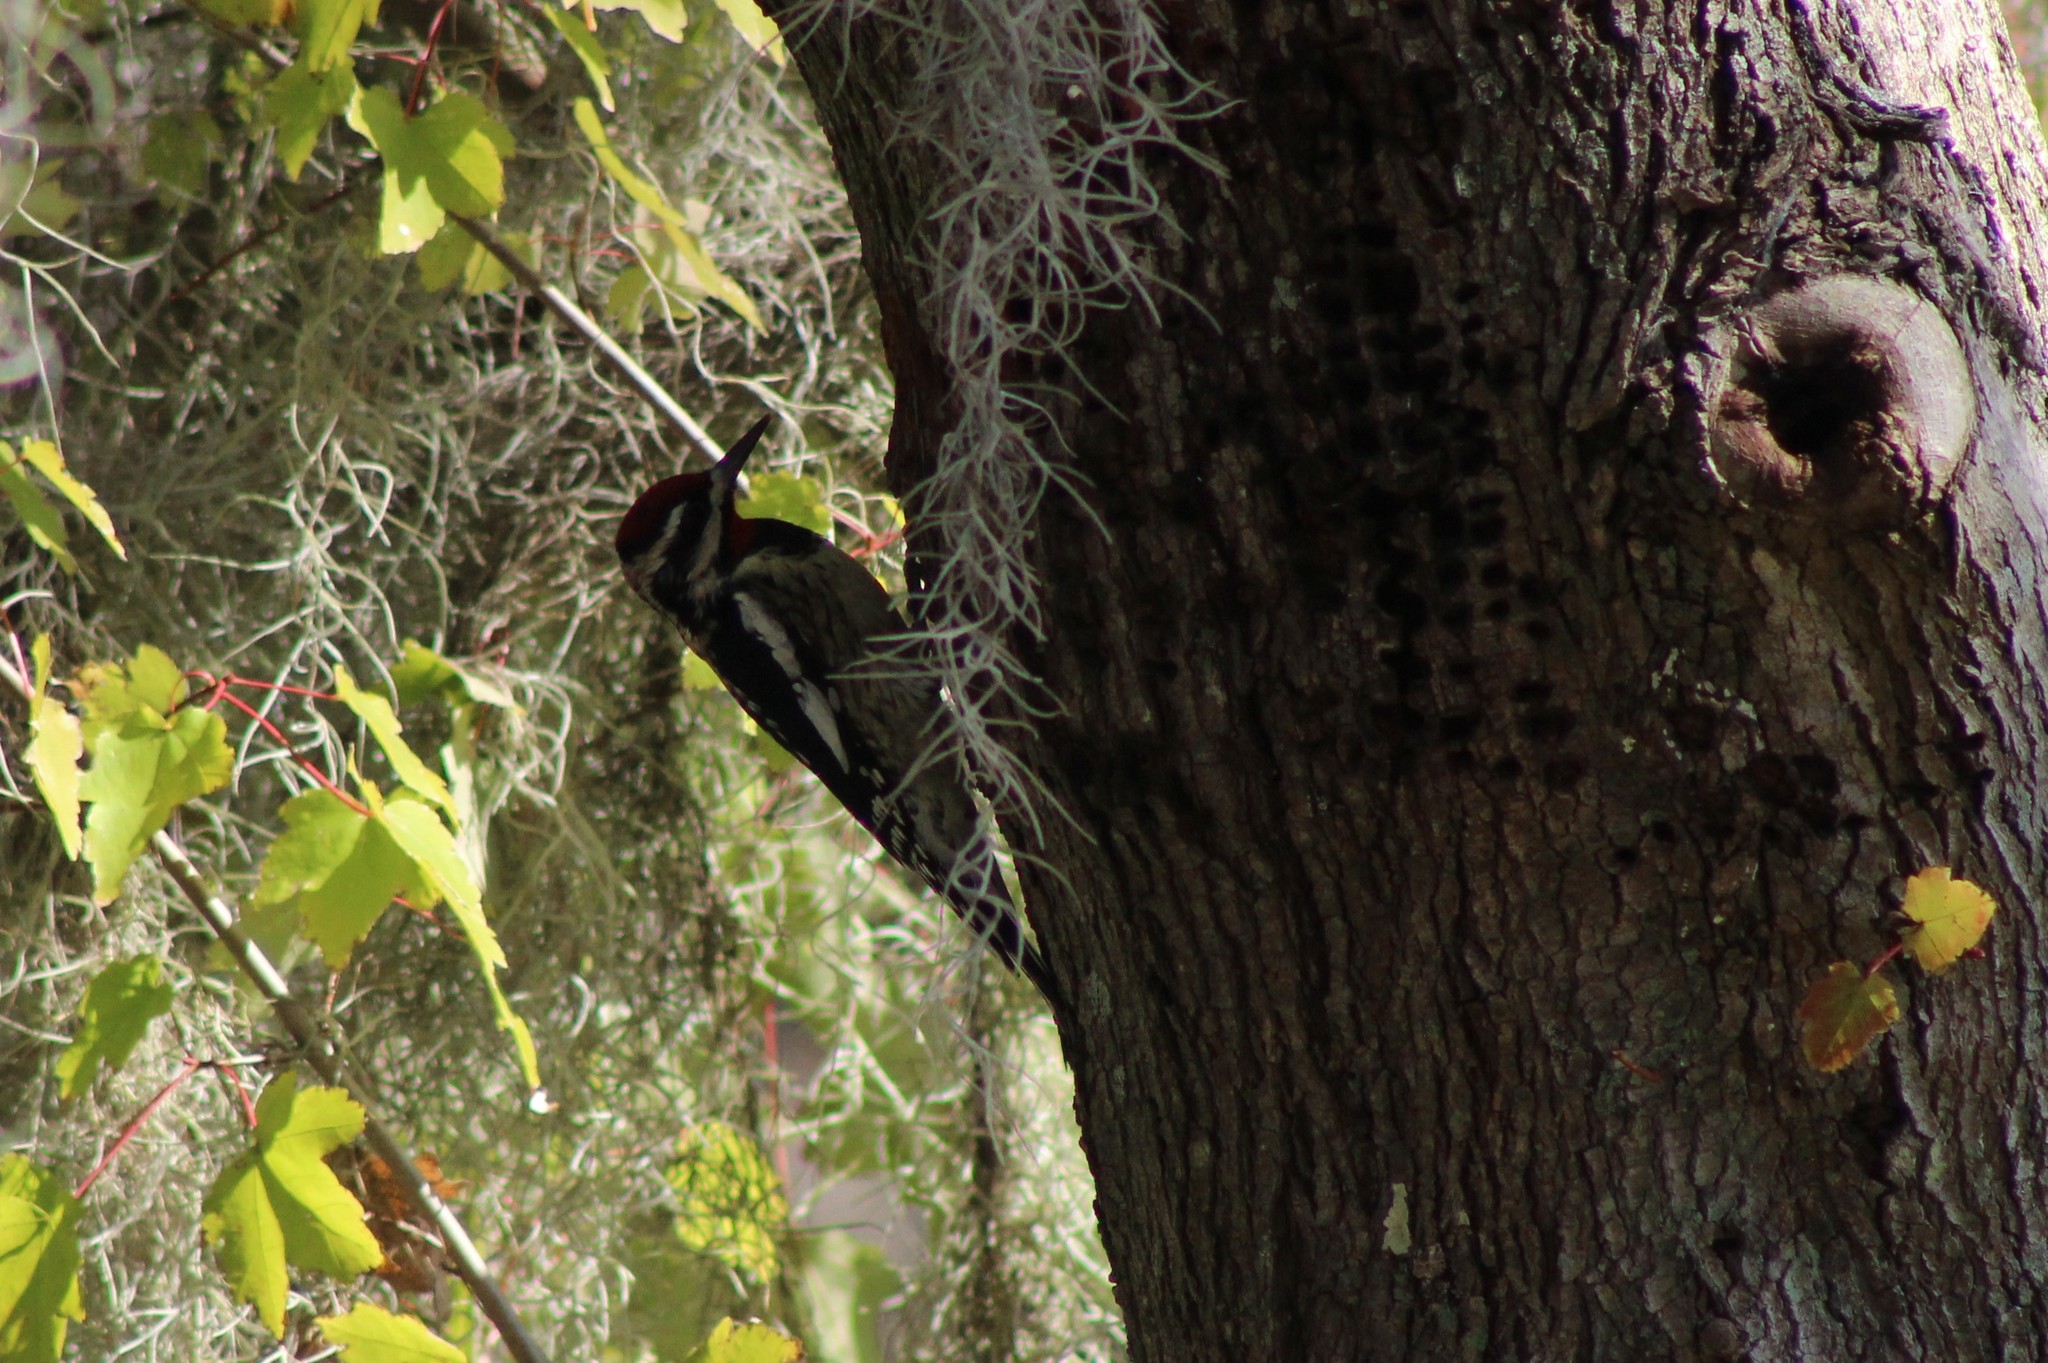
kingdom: Animalia
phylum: Chordata
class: Aves
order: Piciformes
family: Picidae
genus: Sphyrapicus
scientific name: Sphyrapicus varius
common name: Yellow-bellied sapsucker
